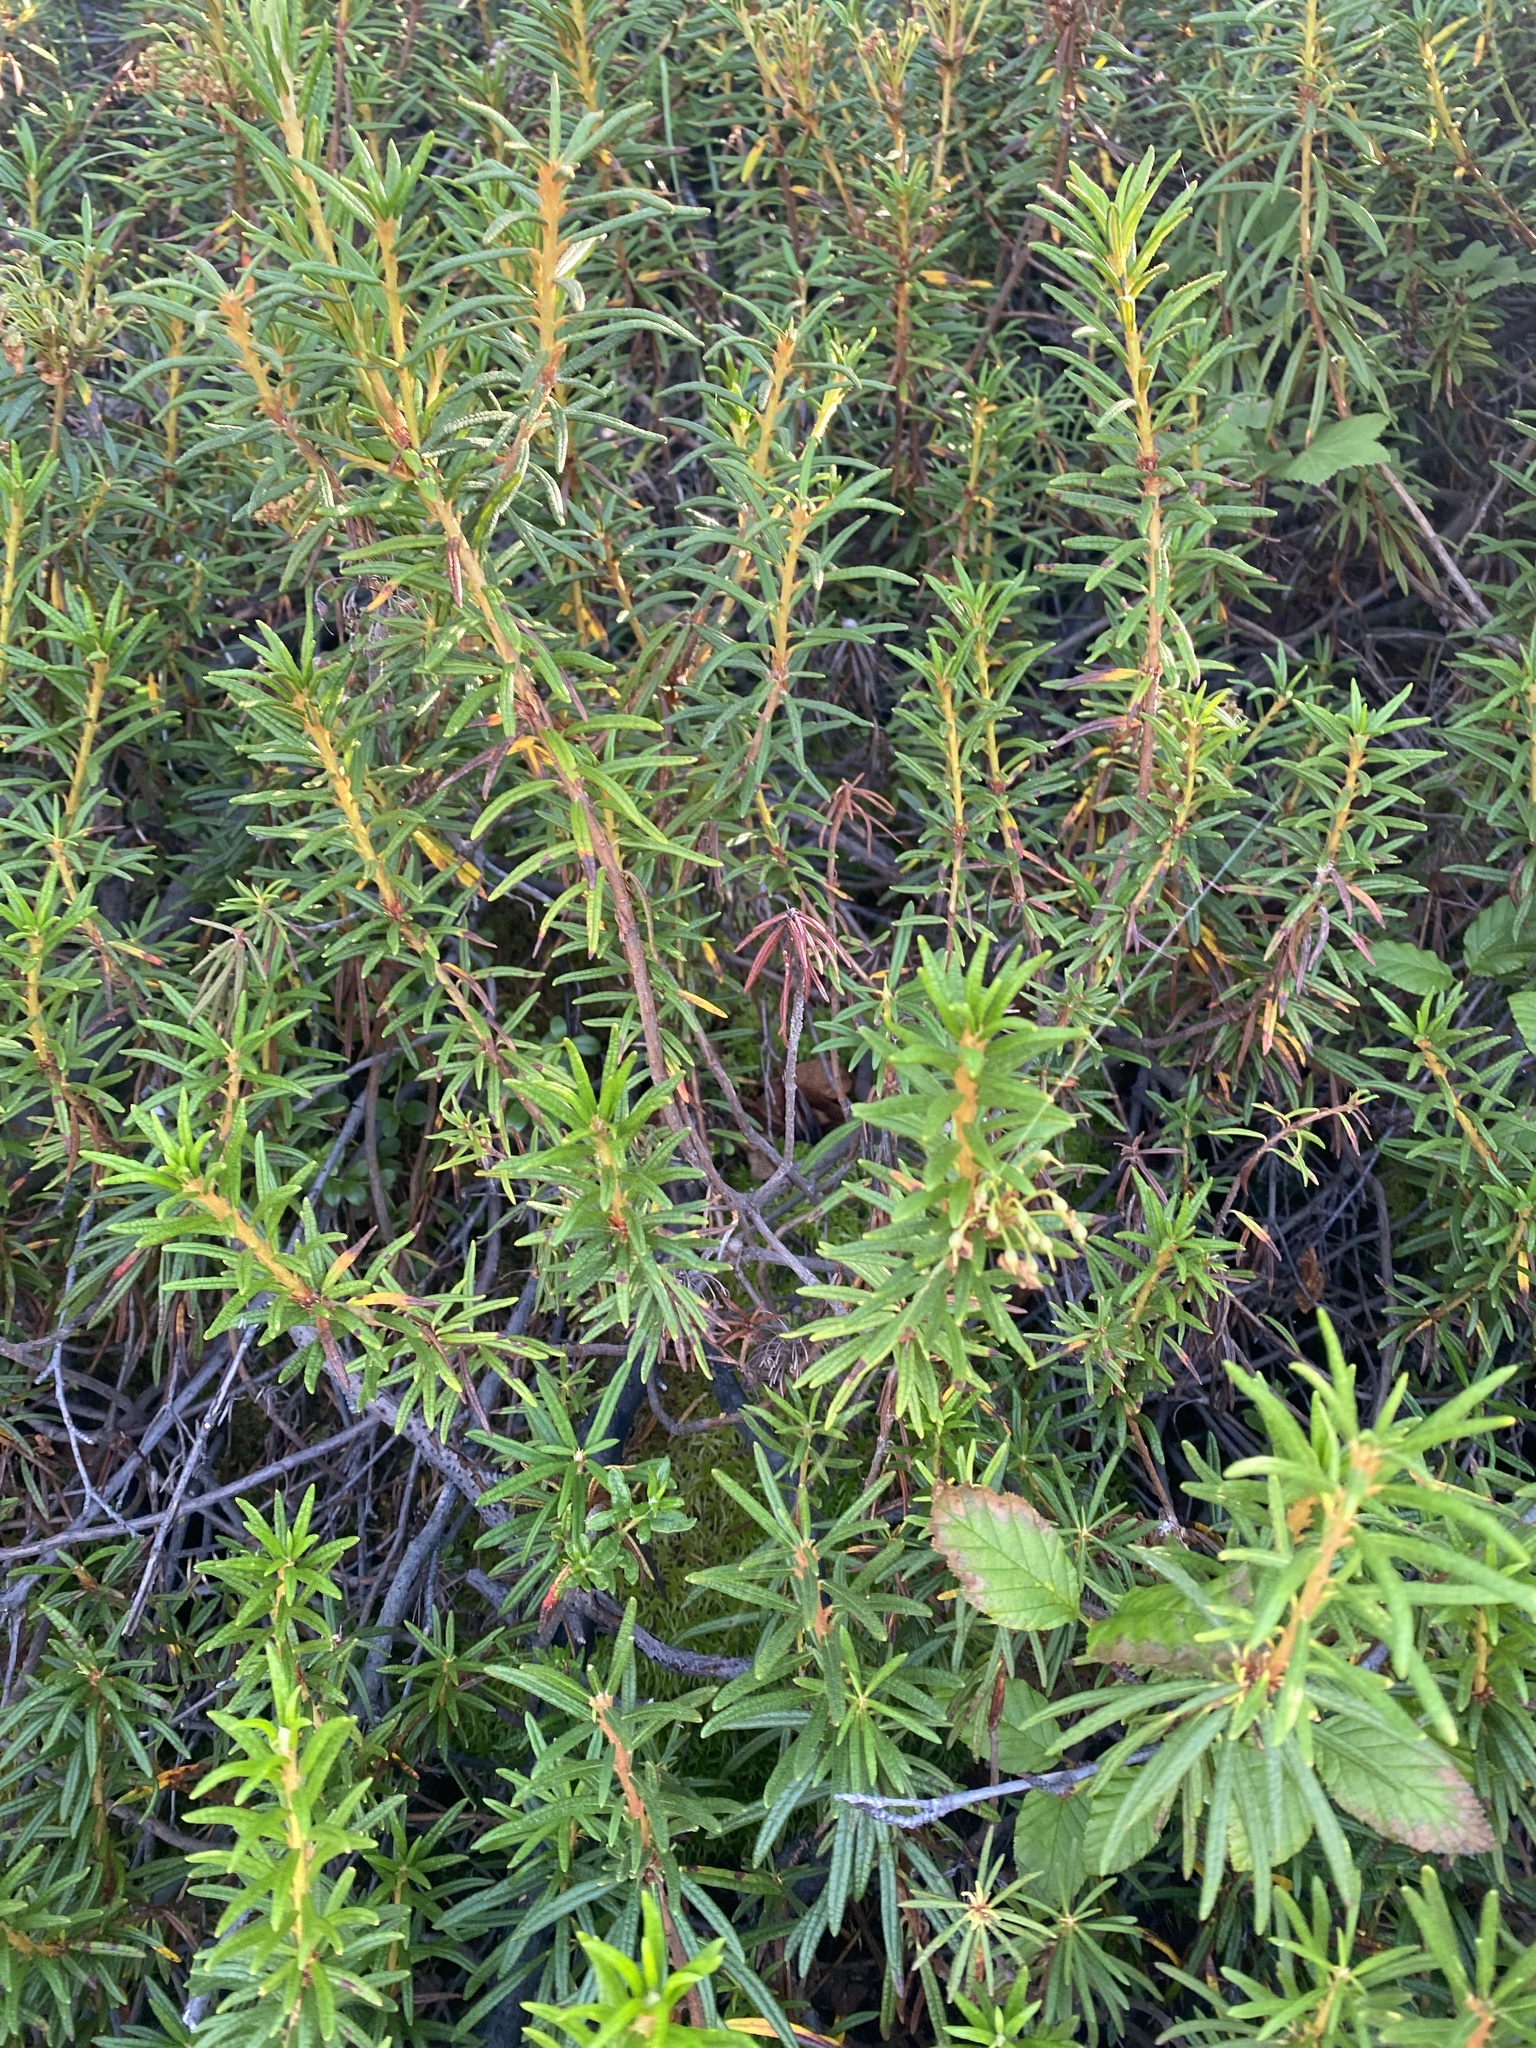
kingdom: Plantae
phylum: Tracheophyta
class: Magnoliopsida
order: Ericales
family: Ericaceae
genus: Rhododendron
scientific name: Rhododendron tomentosum
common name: Marsh labrador tea
